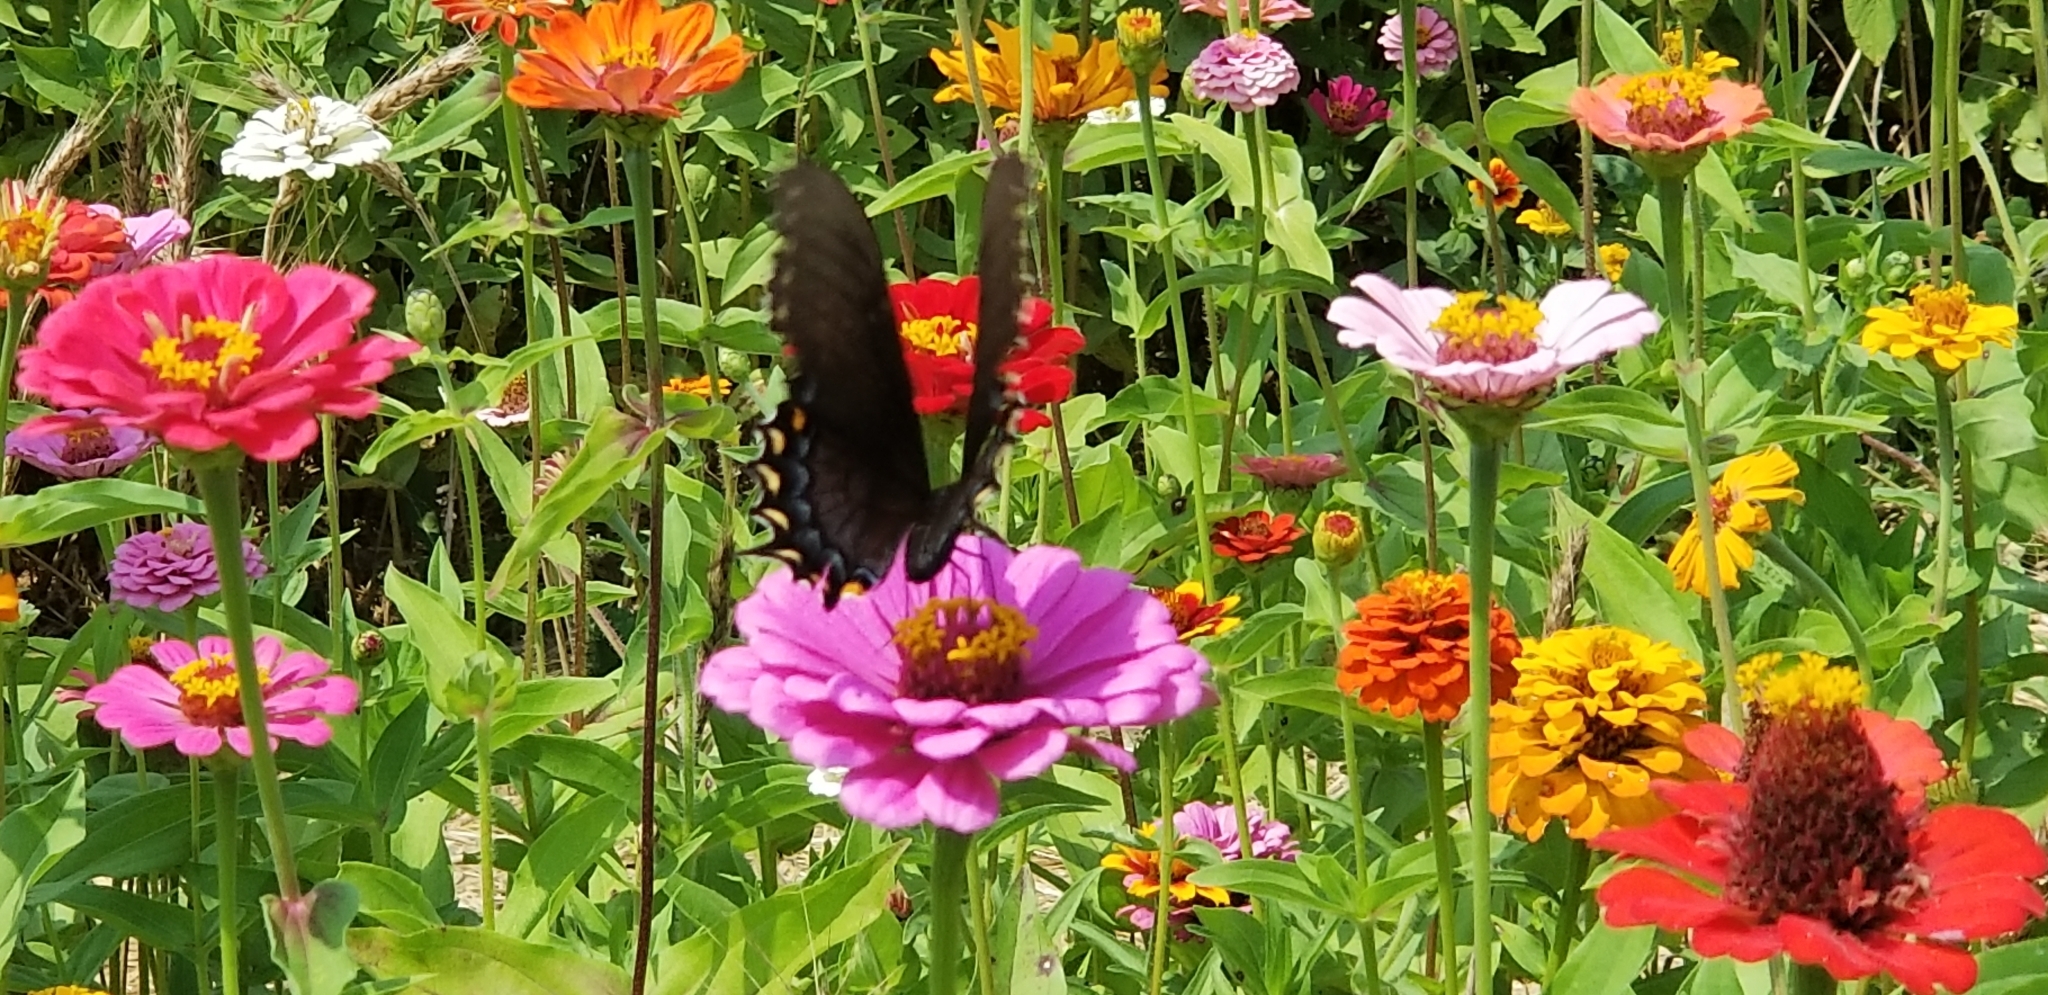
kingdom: Animalia
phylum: Arthropoda
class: Insecta
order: Lepidoptera
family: Papilionidae
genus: Papilio
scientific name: Papilio glaucus
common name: Tiger swallowtail
